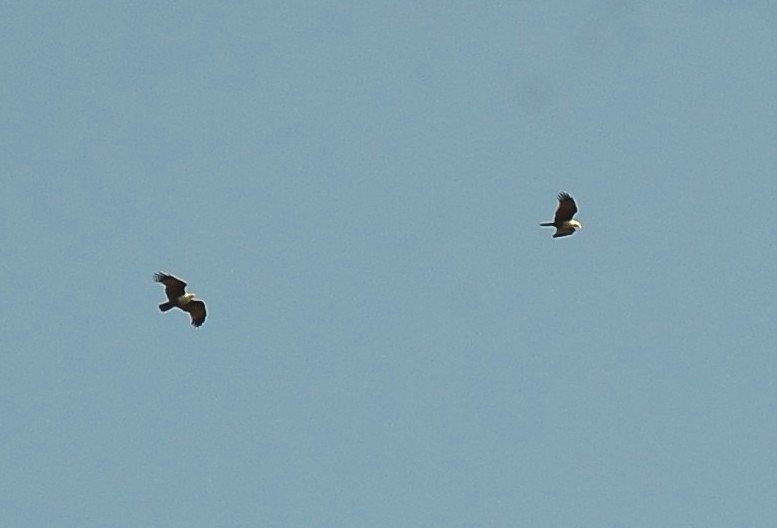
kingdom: Animalia
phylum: Chordata
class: Aves
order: Accipitriformes
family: Accipitridae
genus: Haliastur
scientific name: Haliastur indus
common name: Brahminy kite
